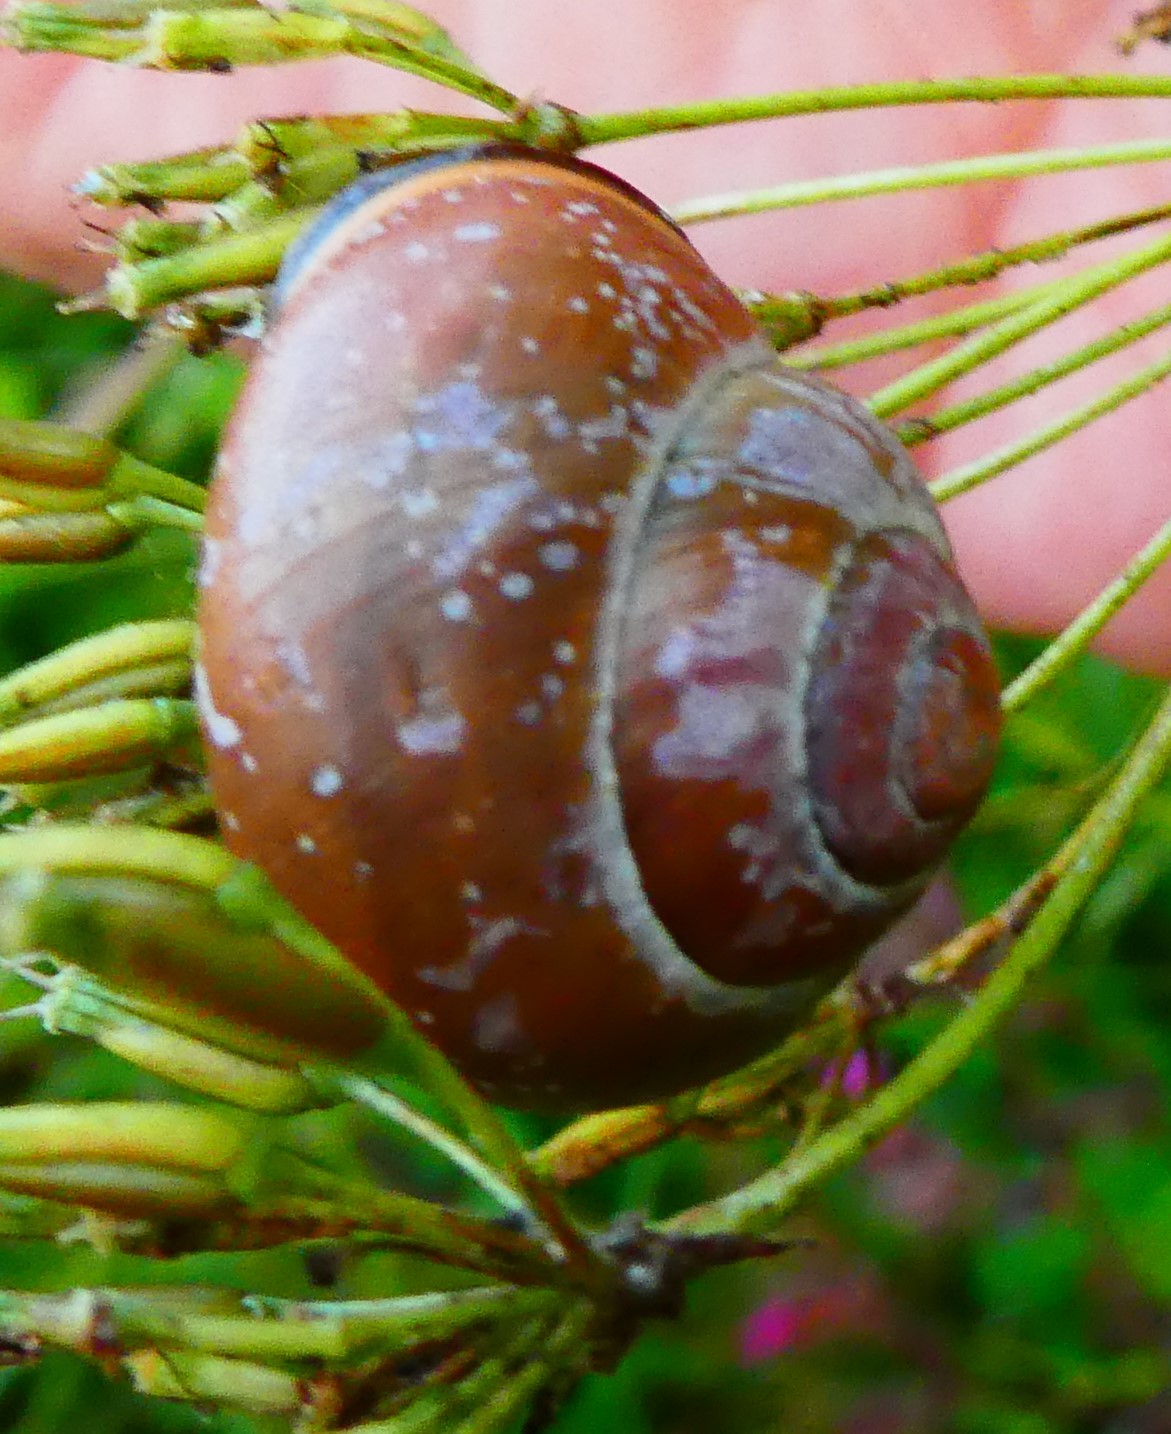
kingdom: Animalia
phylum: Mollusca
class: Gastropoda
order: Stylommatophora
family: Helicidae
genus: Cepaea
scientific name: Cepaea nemoralis
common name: Grovesnail
